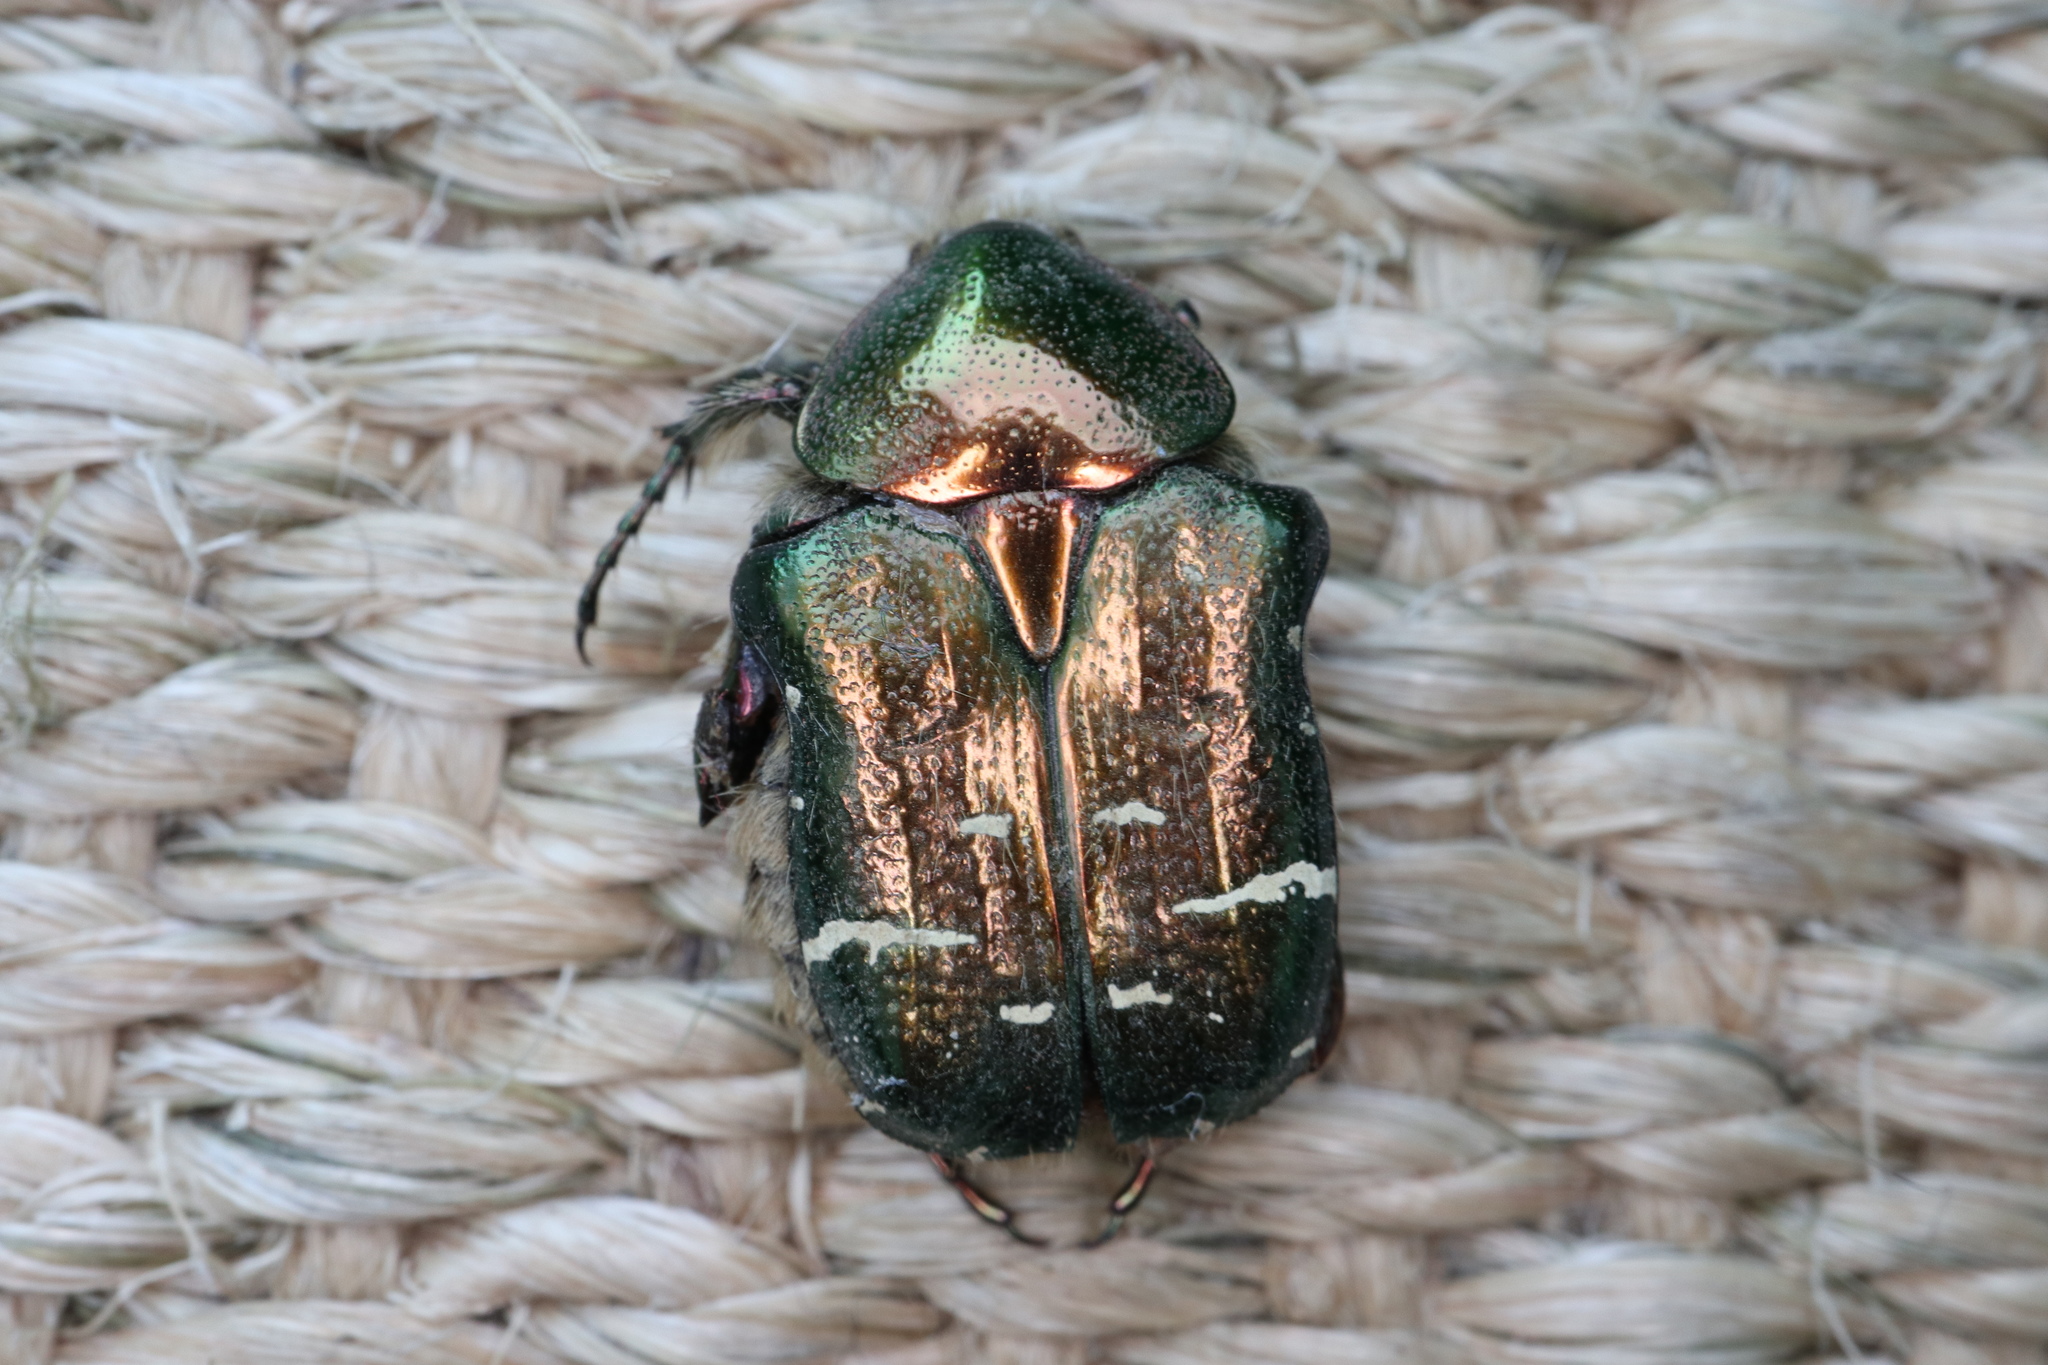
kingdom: Animalia
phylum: Arthropoda
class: Insecta
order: Coleoptera
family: Scarabaeidae
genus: Cetonia
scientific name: Cetonia aurata
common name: Rose chafer
